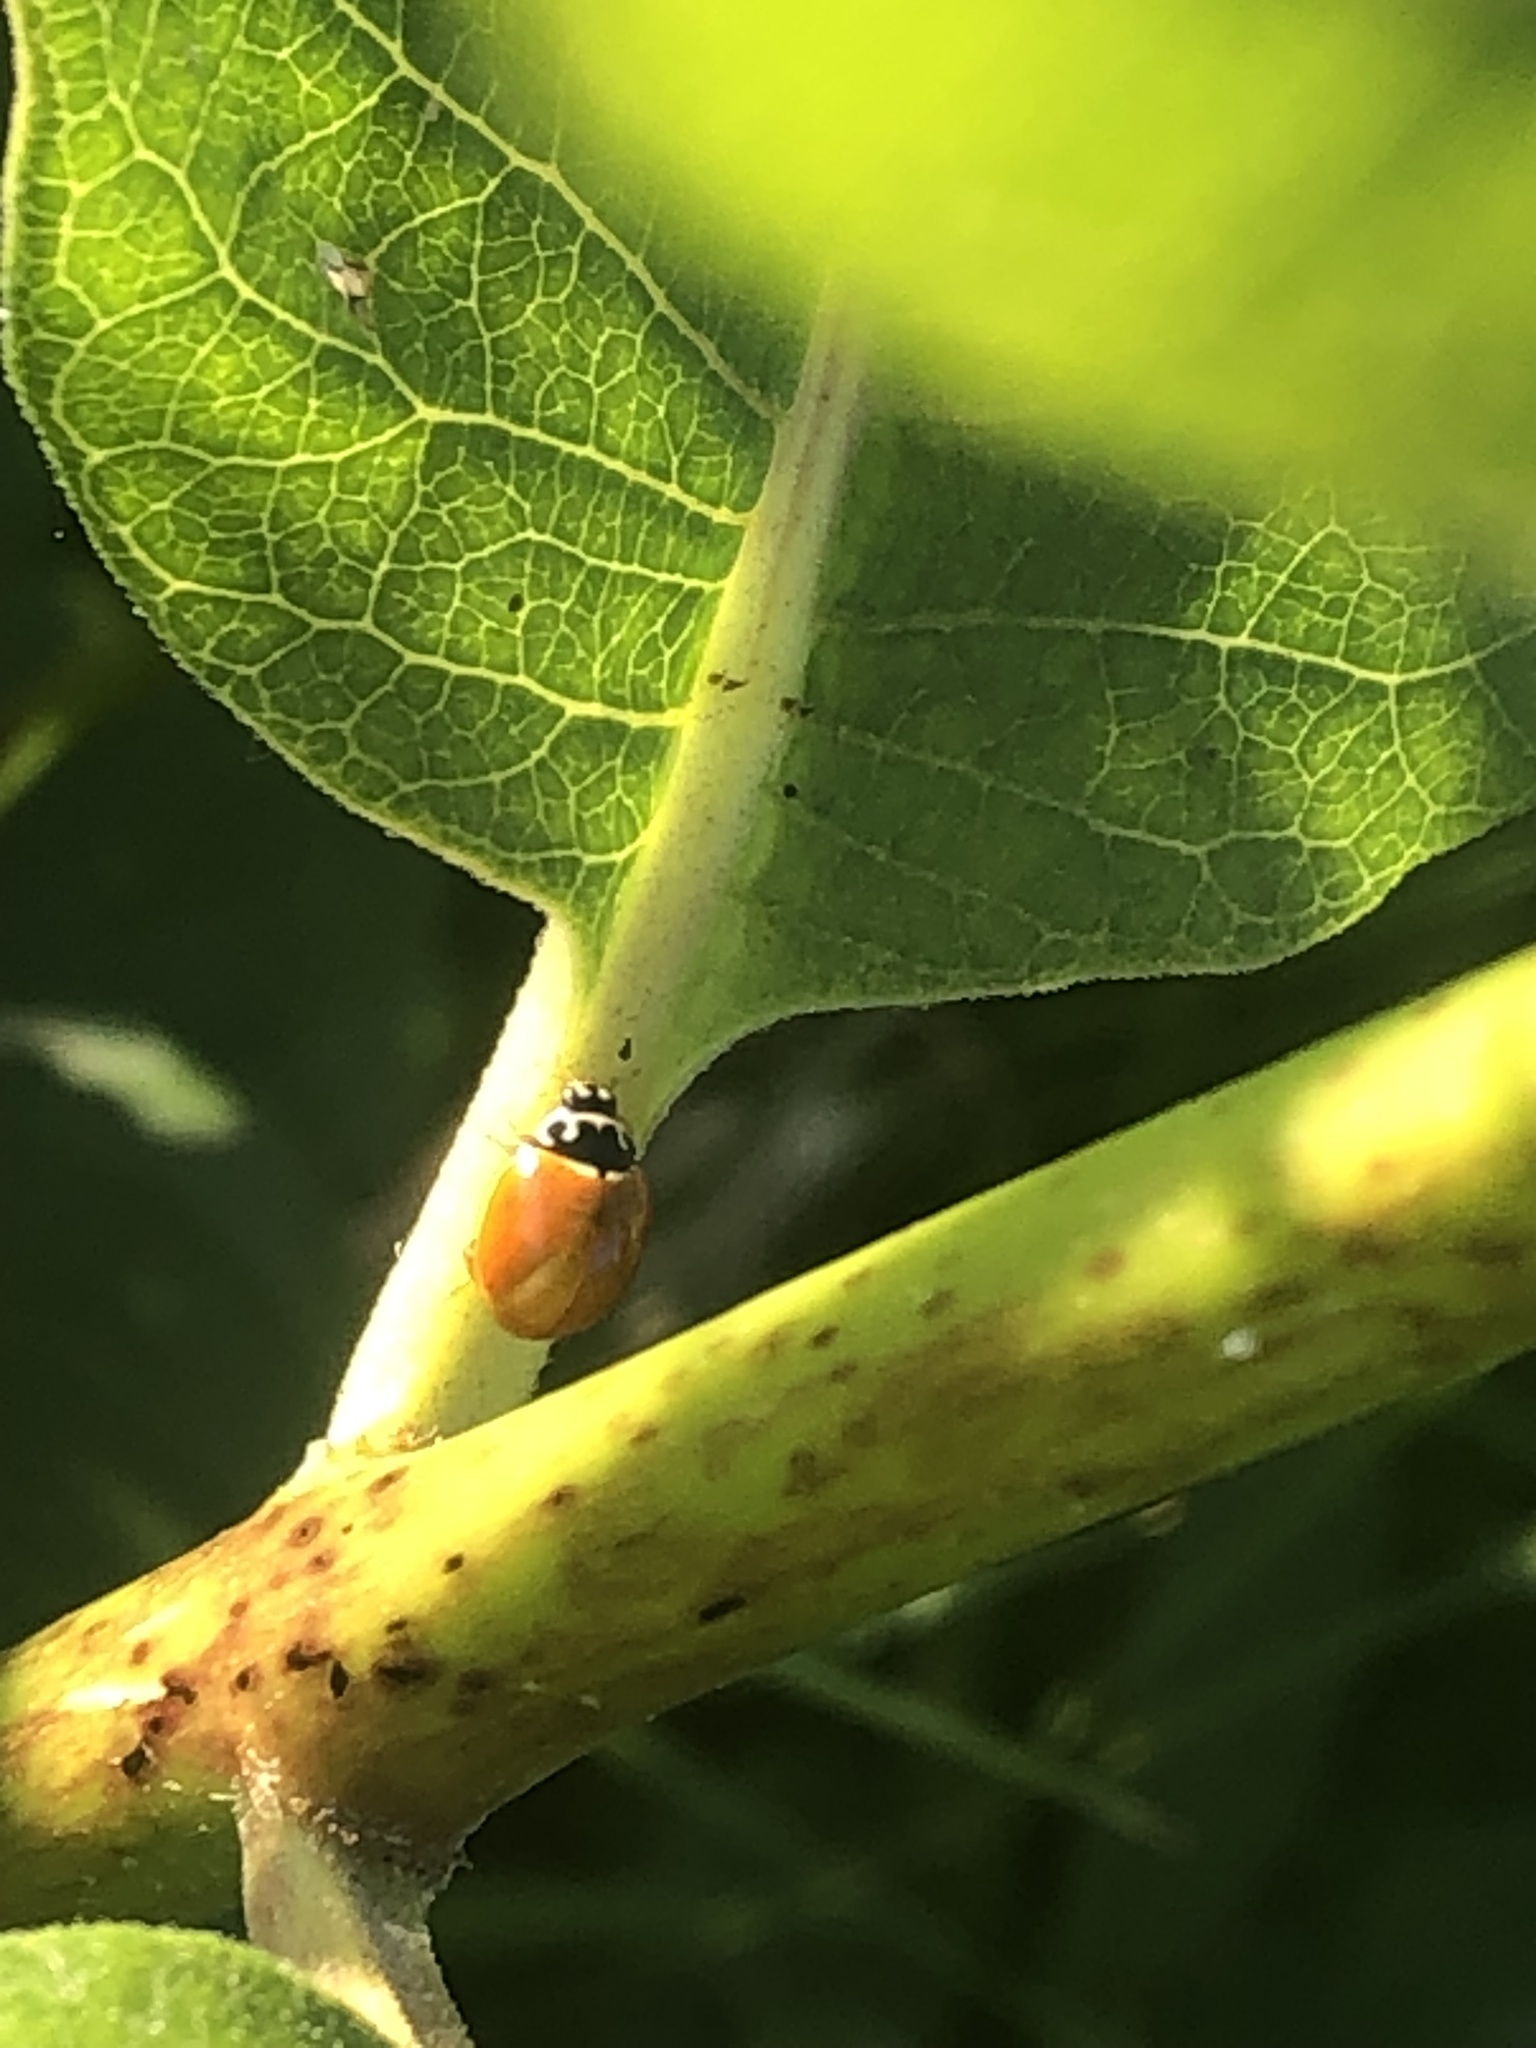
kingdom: Animalia
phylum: Arthropoda
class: Insecta
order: Coleoptera
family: Coccinellidae
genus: Cycloneda
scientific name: Cycloneda munda
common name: Polished lady beetle
